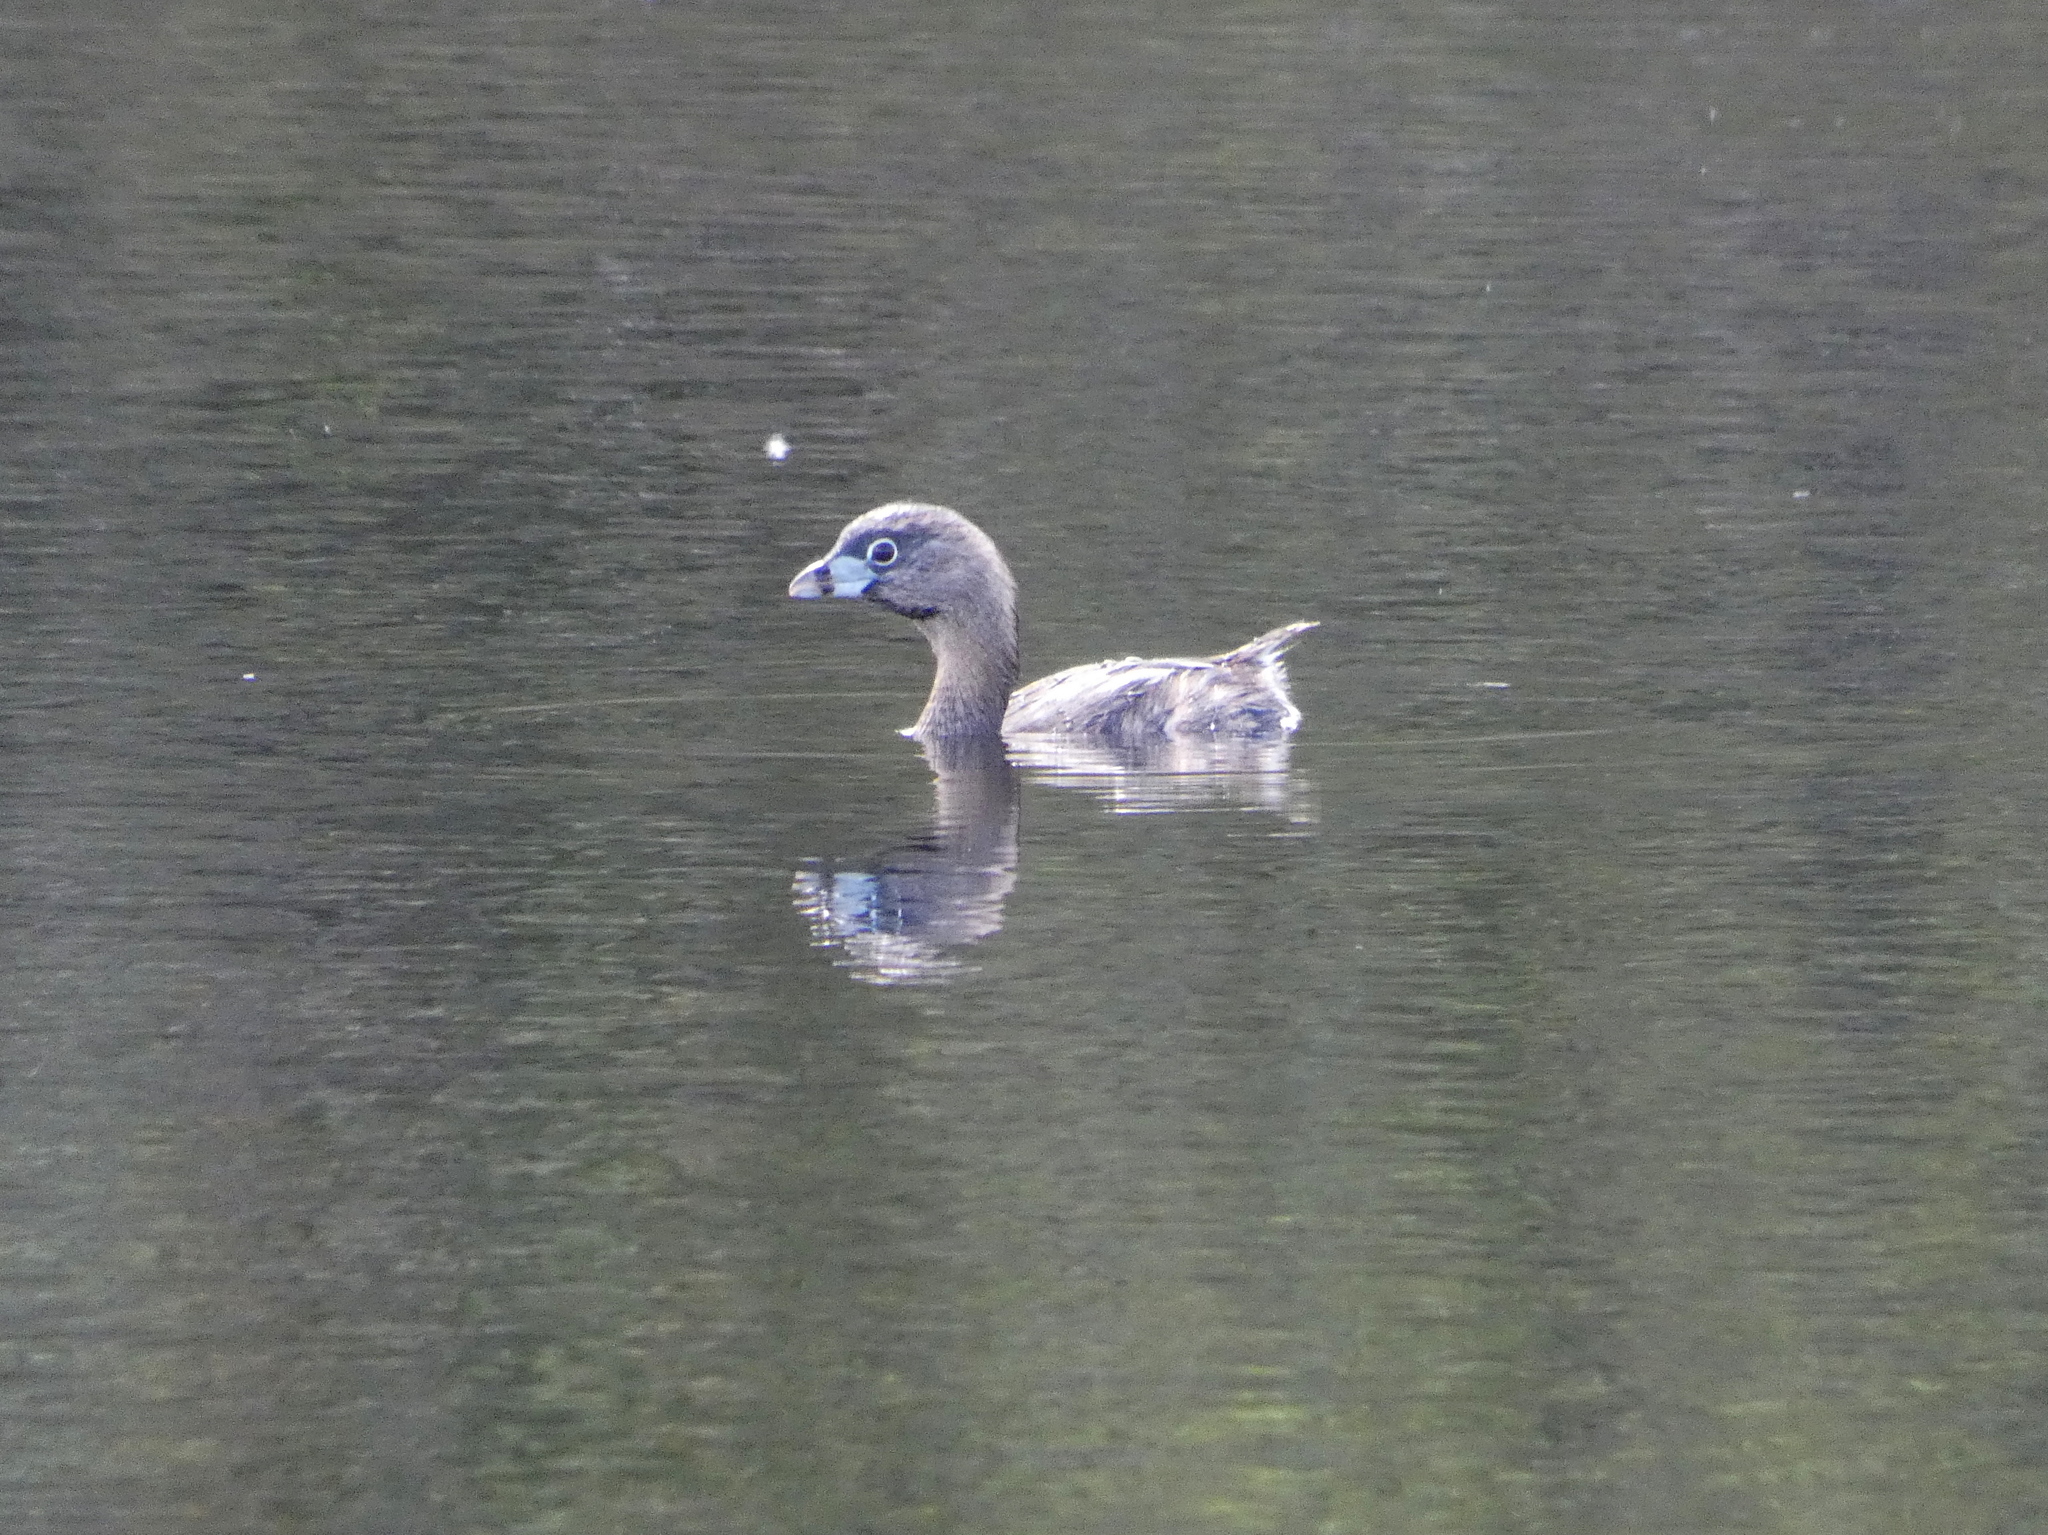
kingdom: Animalia
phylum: Chordata
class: Aves
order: Podicipediformes
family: Podicipedidae
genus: Podilymbus
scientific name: Podilymbus podiceps
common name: Pied-billed grebe
